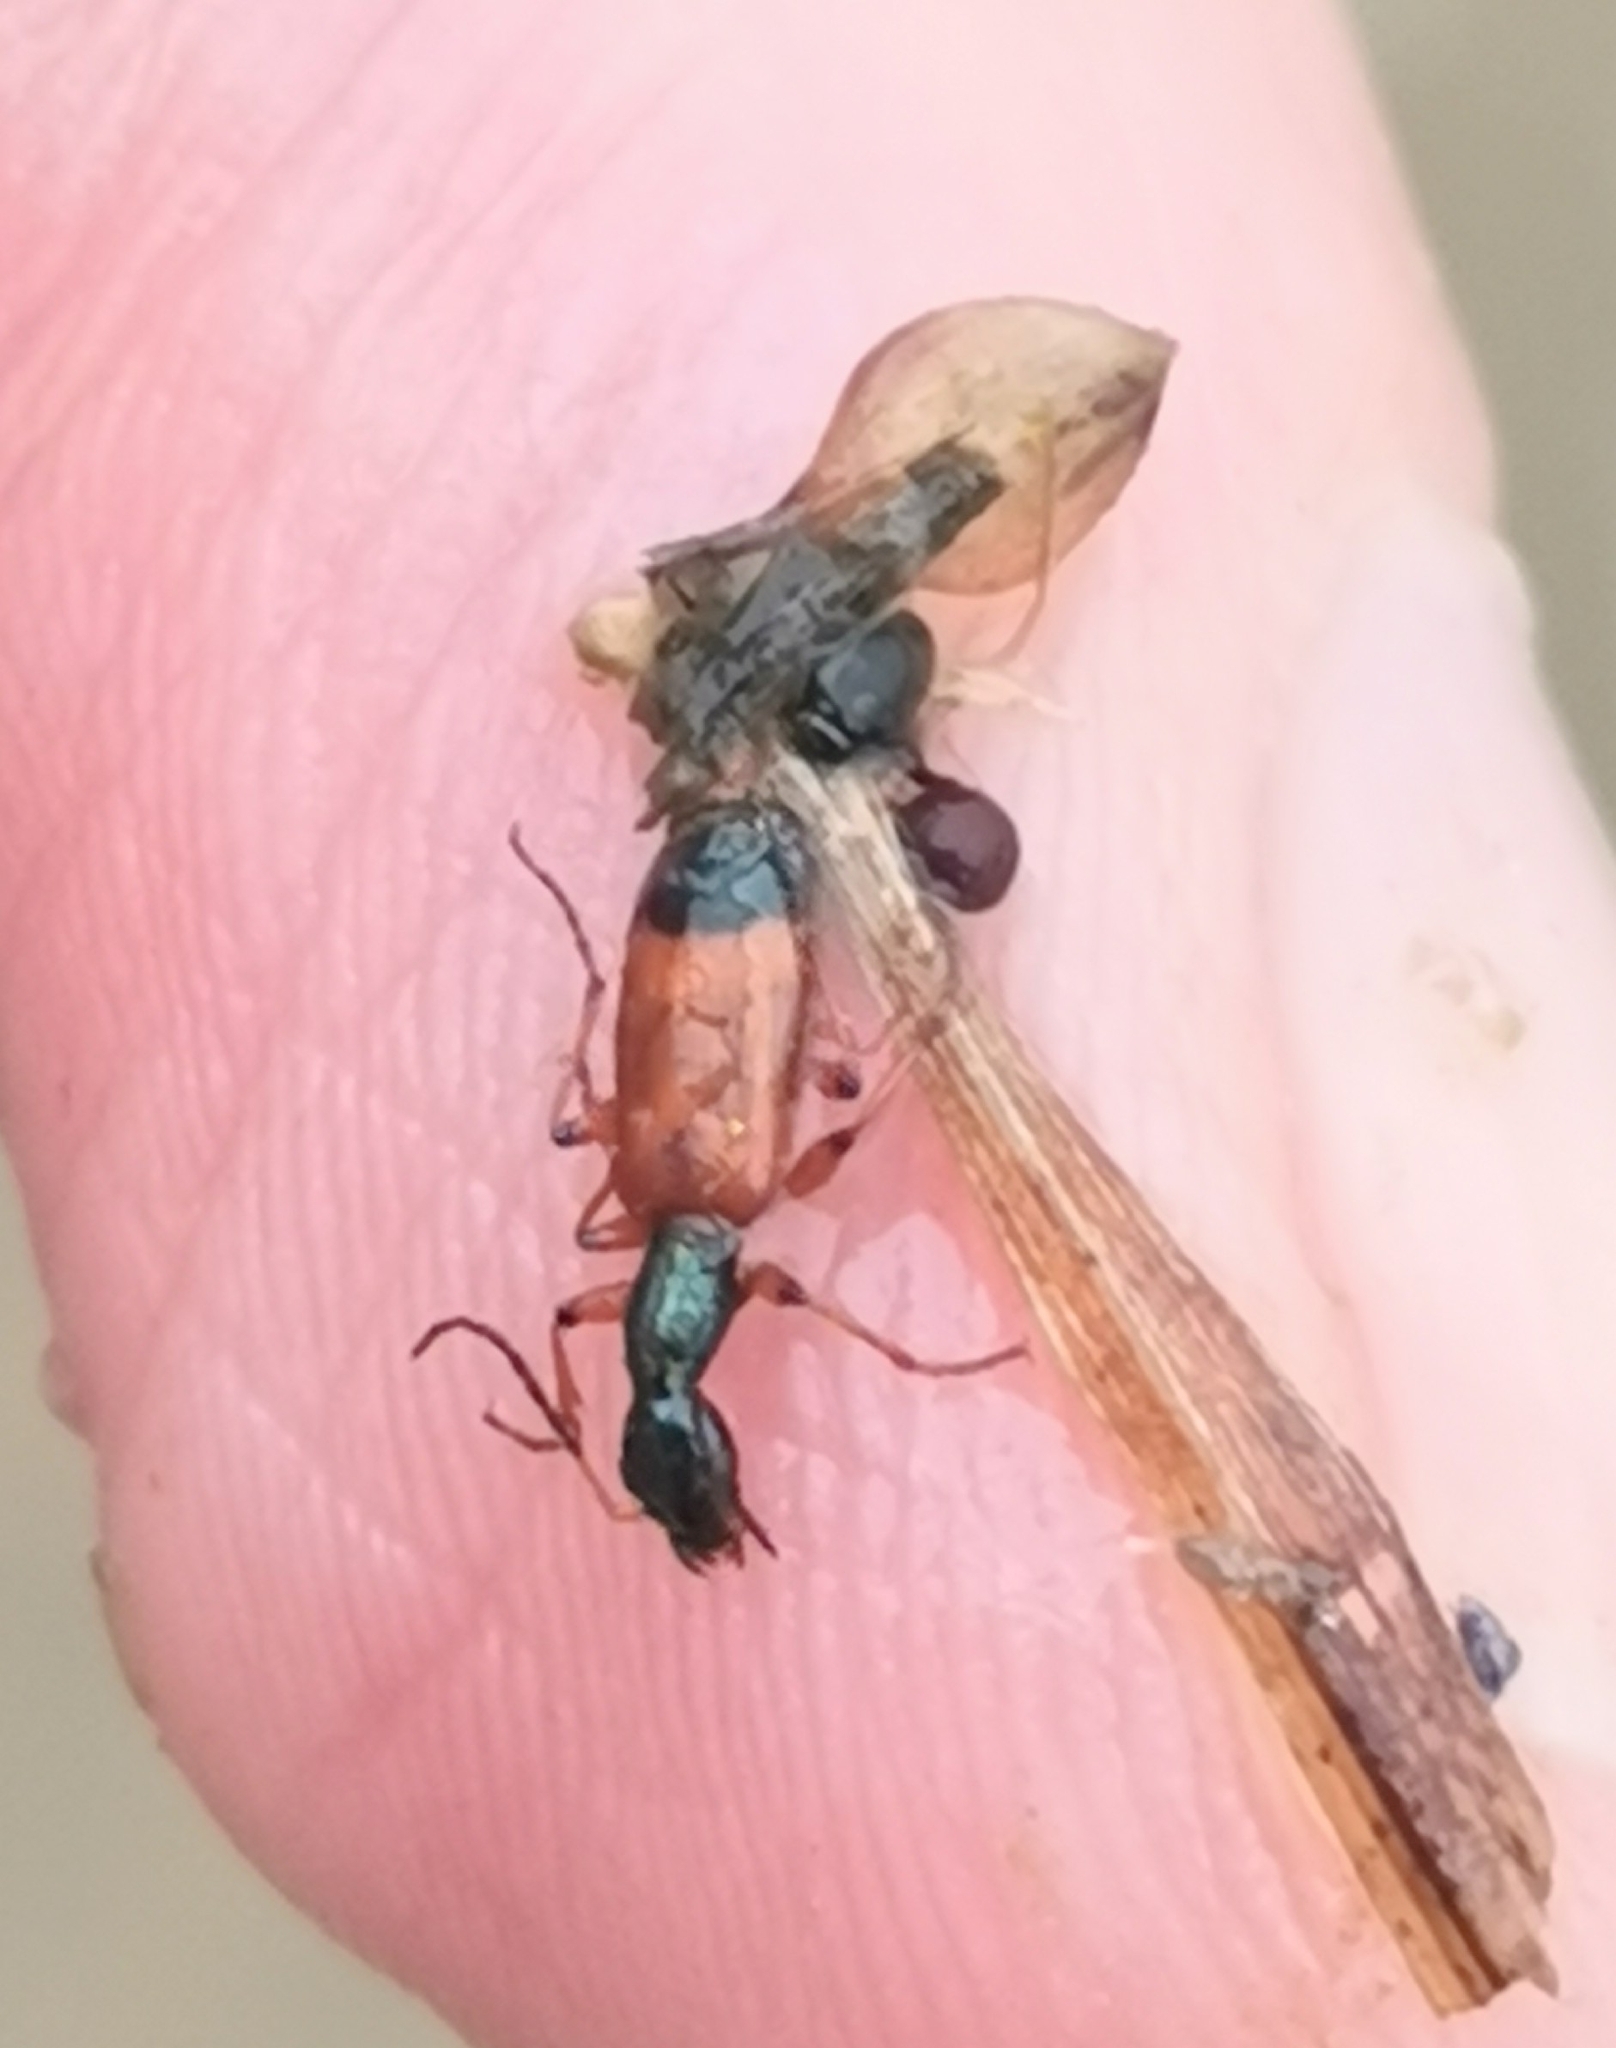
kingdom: Animalia
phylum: Arthropoda
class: Insecta
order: Coleoptera
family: Carabidae
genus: Odacantha
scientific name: Odacantha melanura
